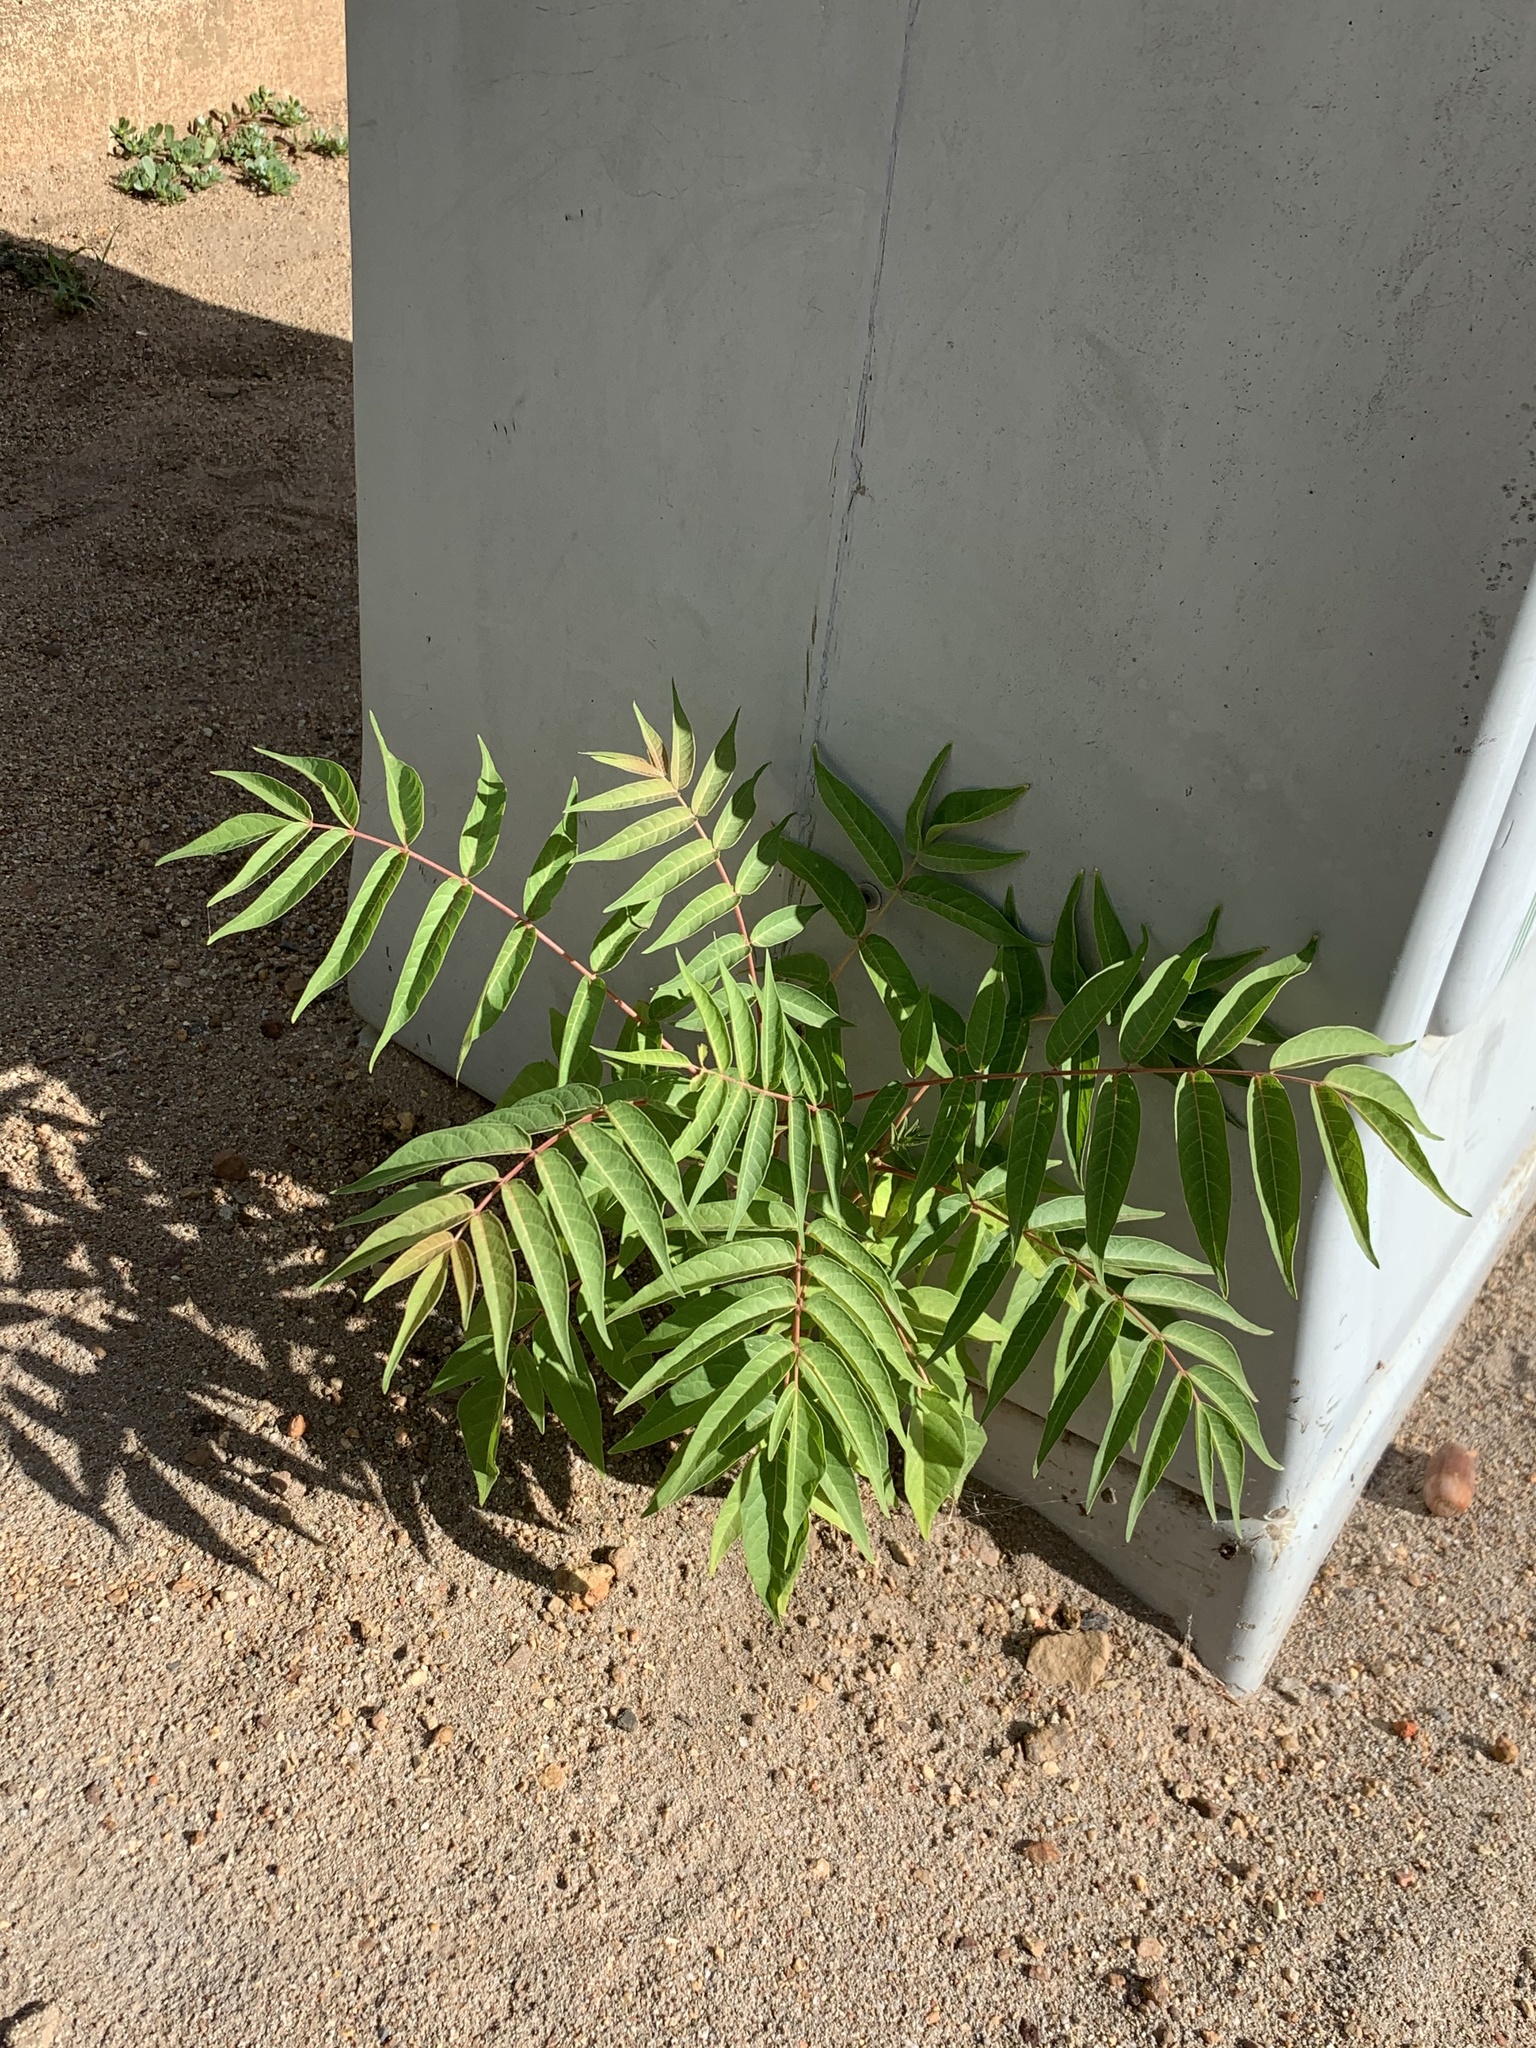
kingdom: Plantae
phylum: Tracheophyta
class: Magnoliopsida
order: Sapindales
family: Simaroubaceae
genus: Ailanthus
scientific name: Ailanthus altissima
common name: Tree-of-heaven
